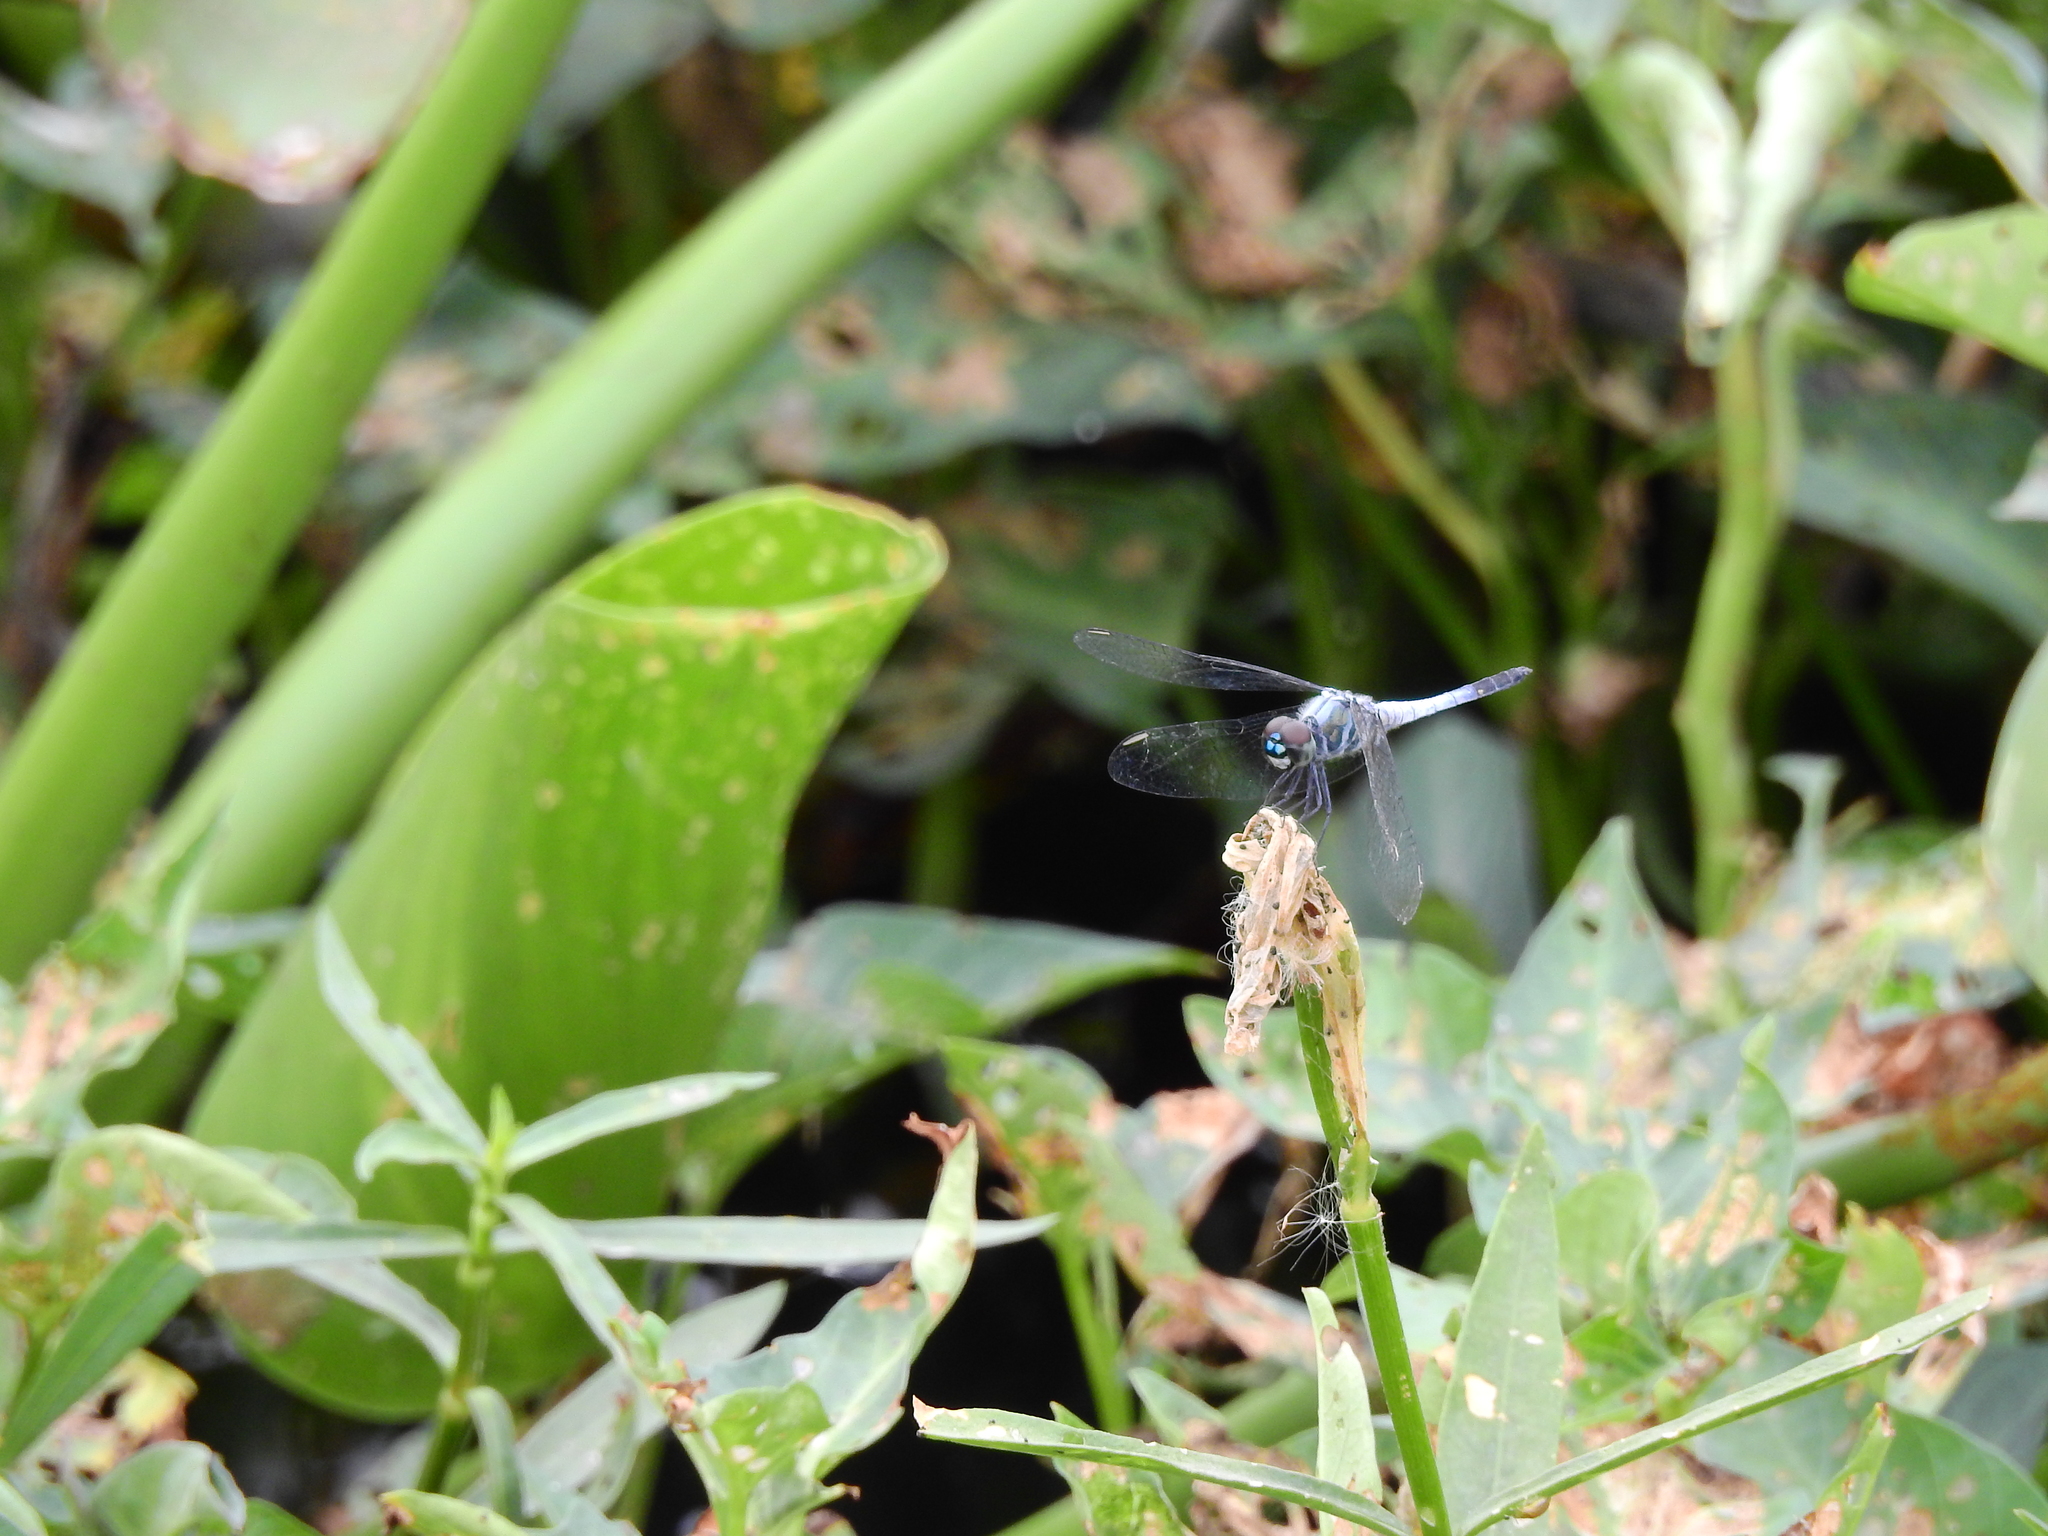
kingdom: Animalia
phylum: Arthropoda
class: Insecta
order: Odonata
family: Libellulidae
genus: Brachydiplax
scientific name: Brachydiplax sobrina
